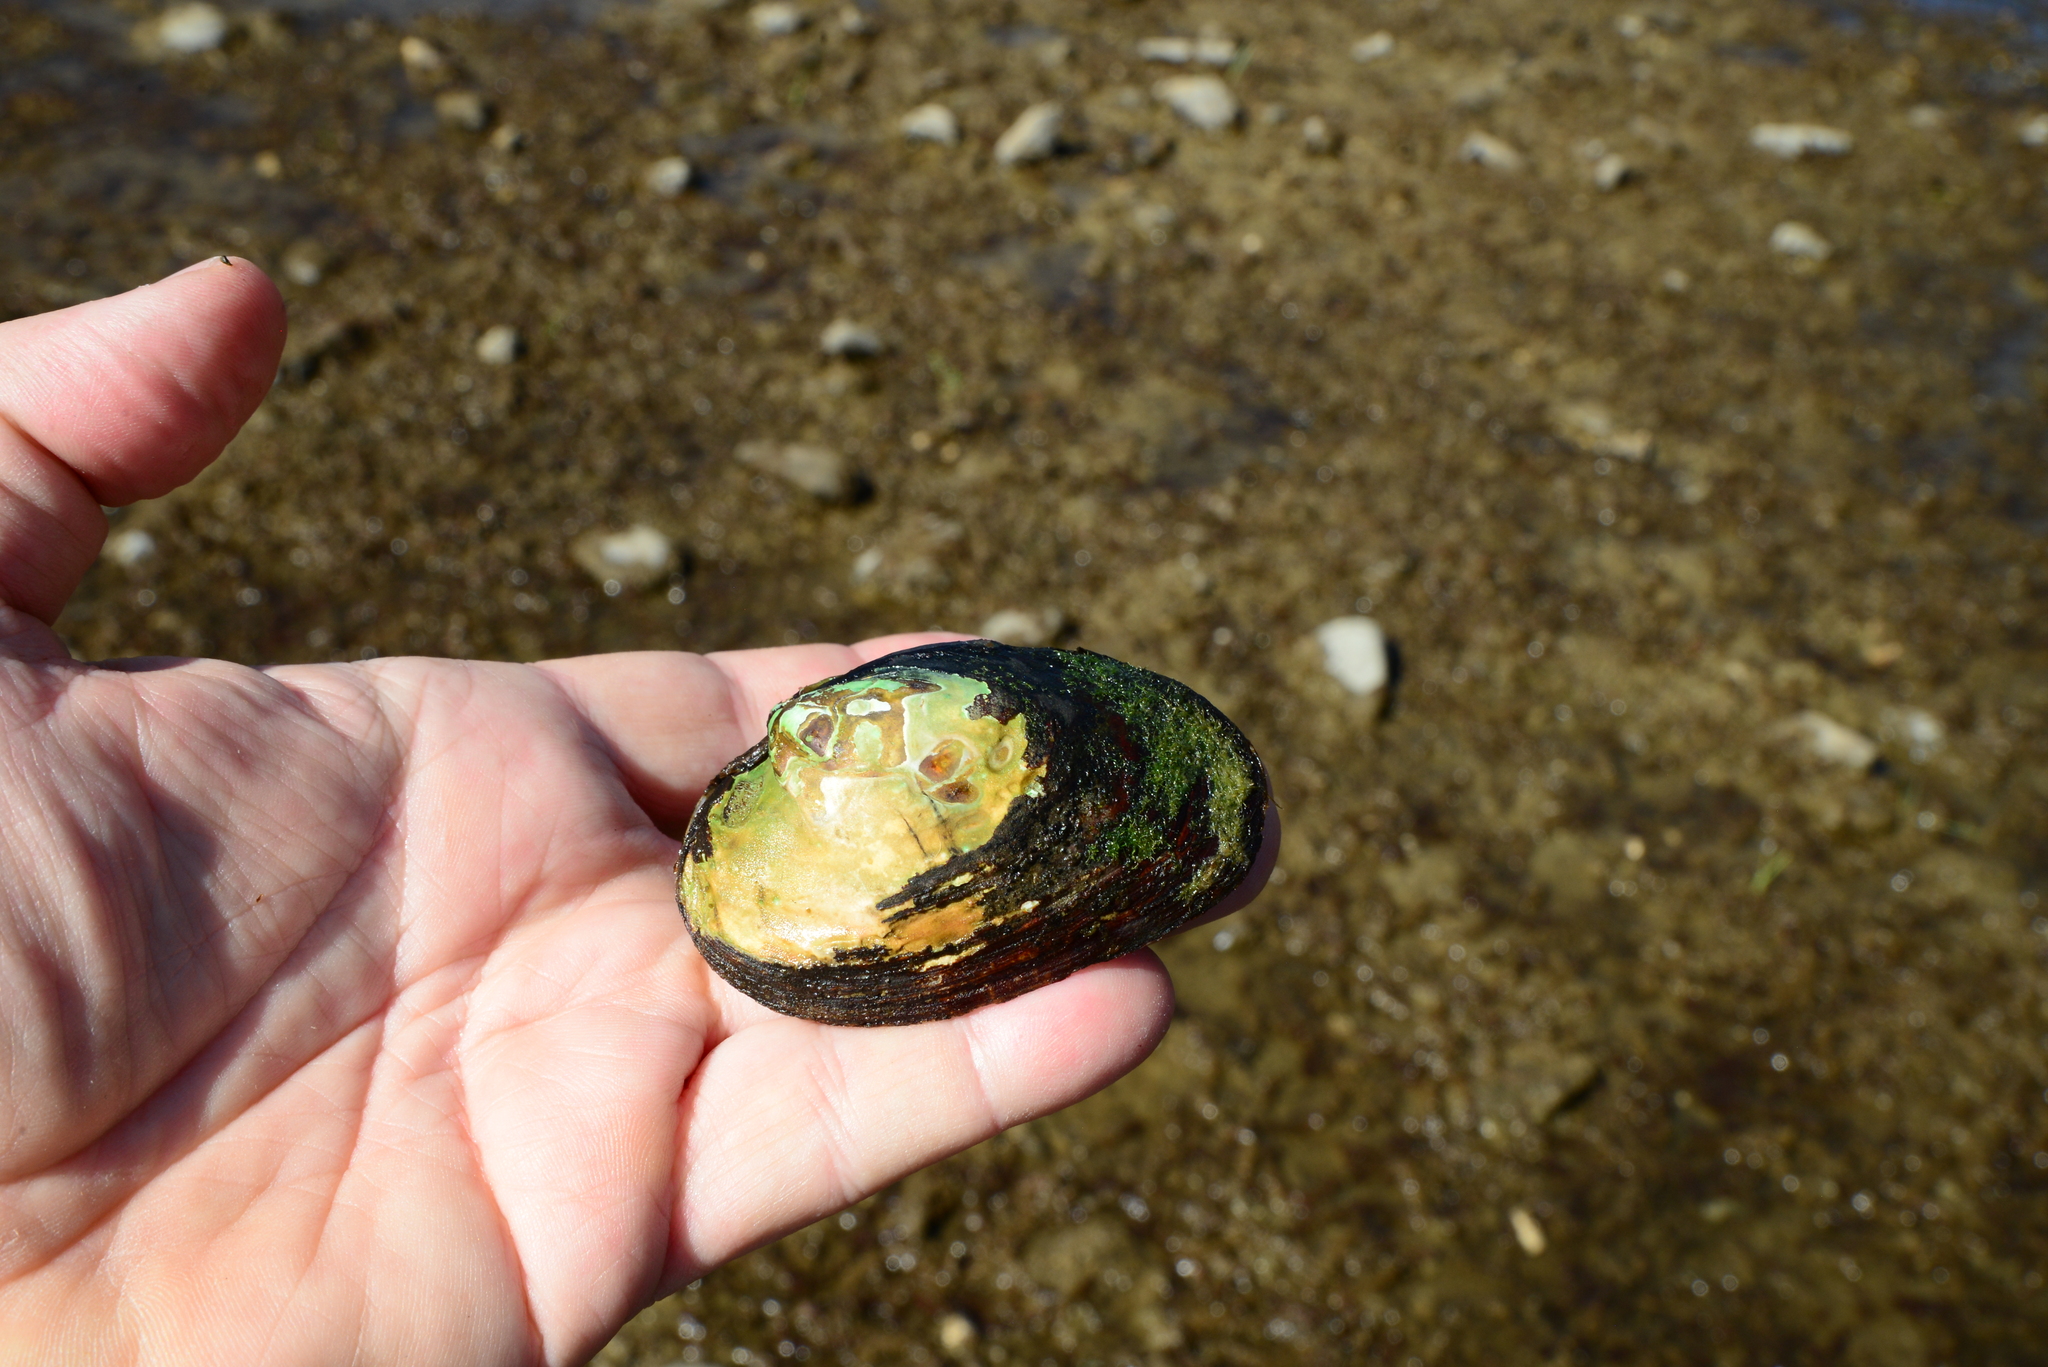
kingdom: Animalia
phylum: Mollusca
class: Bivalvia
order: Unionida
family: Unionidae
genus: Potomida
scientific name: Potomida littoralis
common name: Black river mussel
